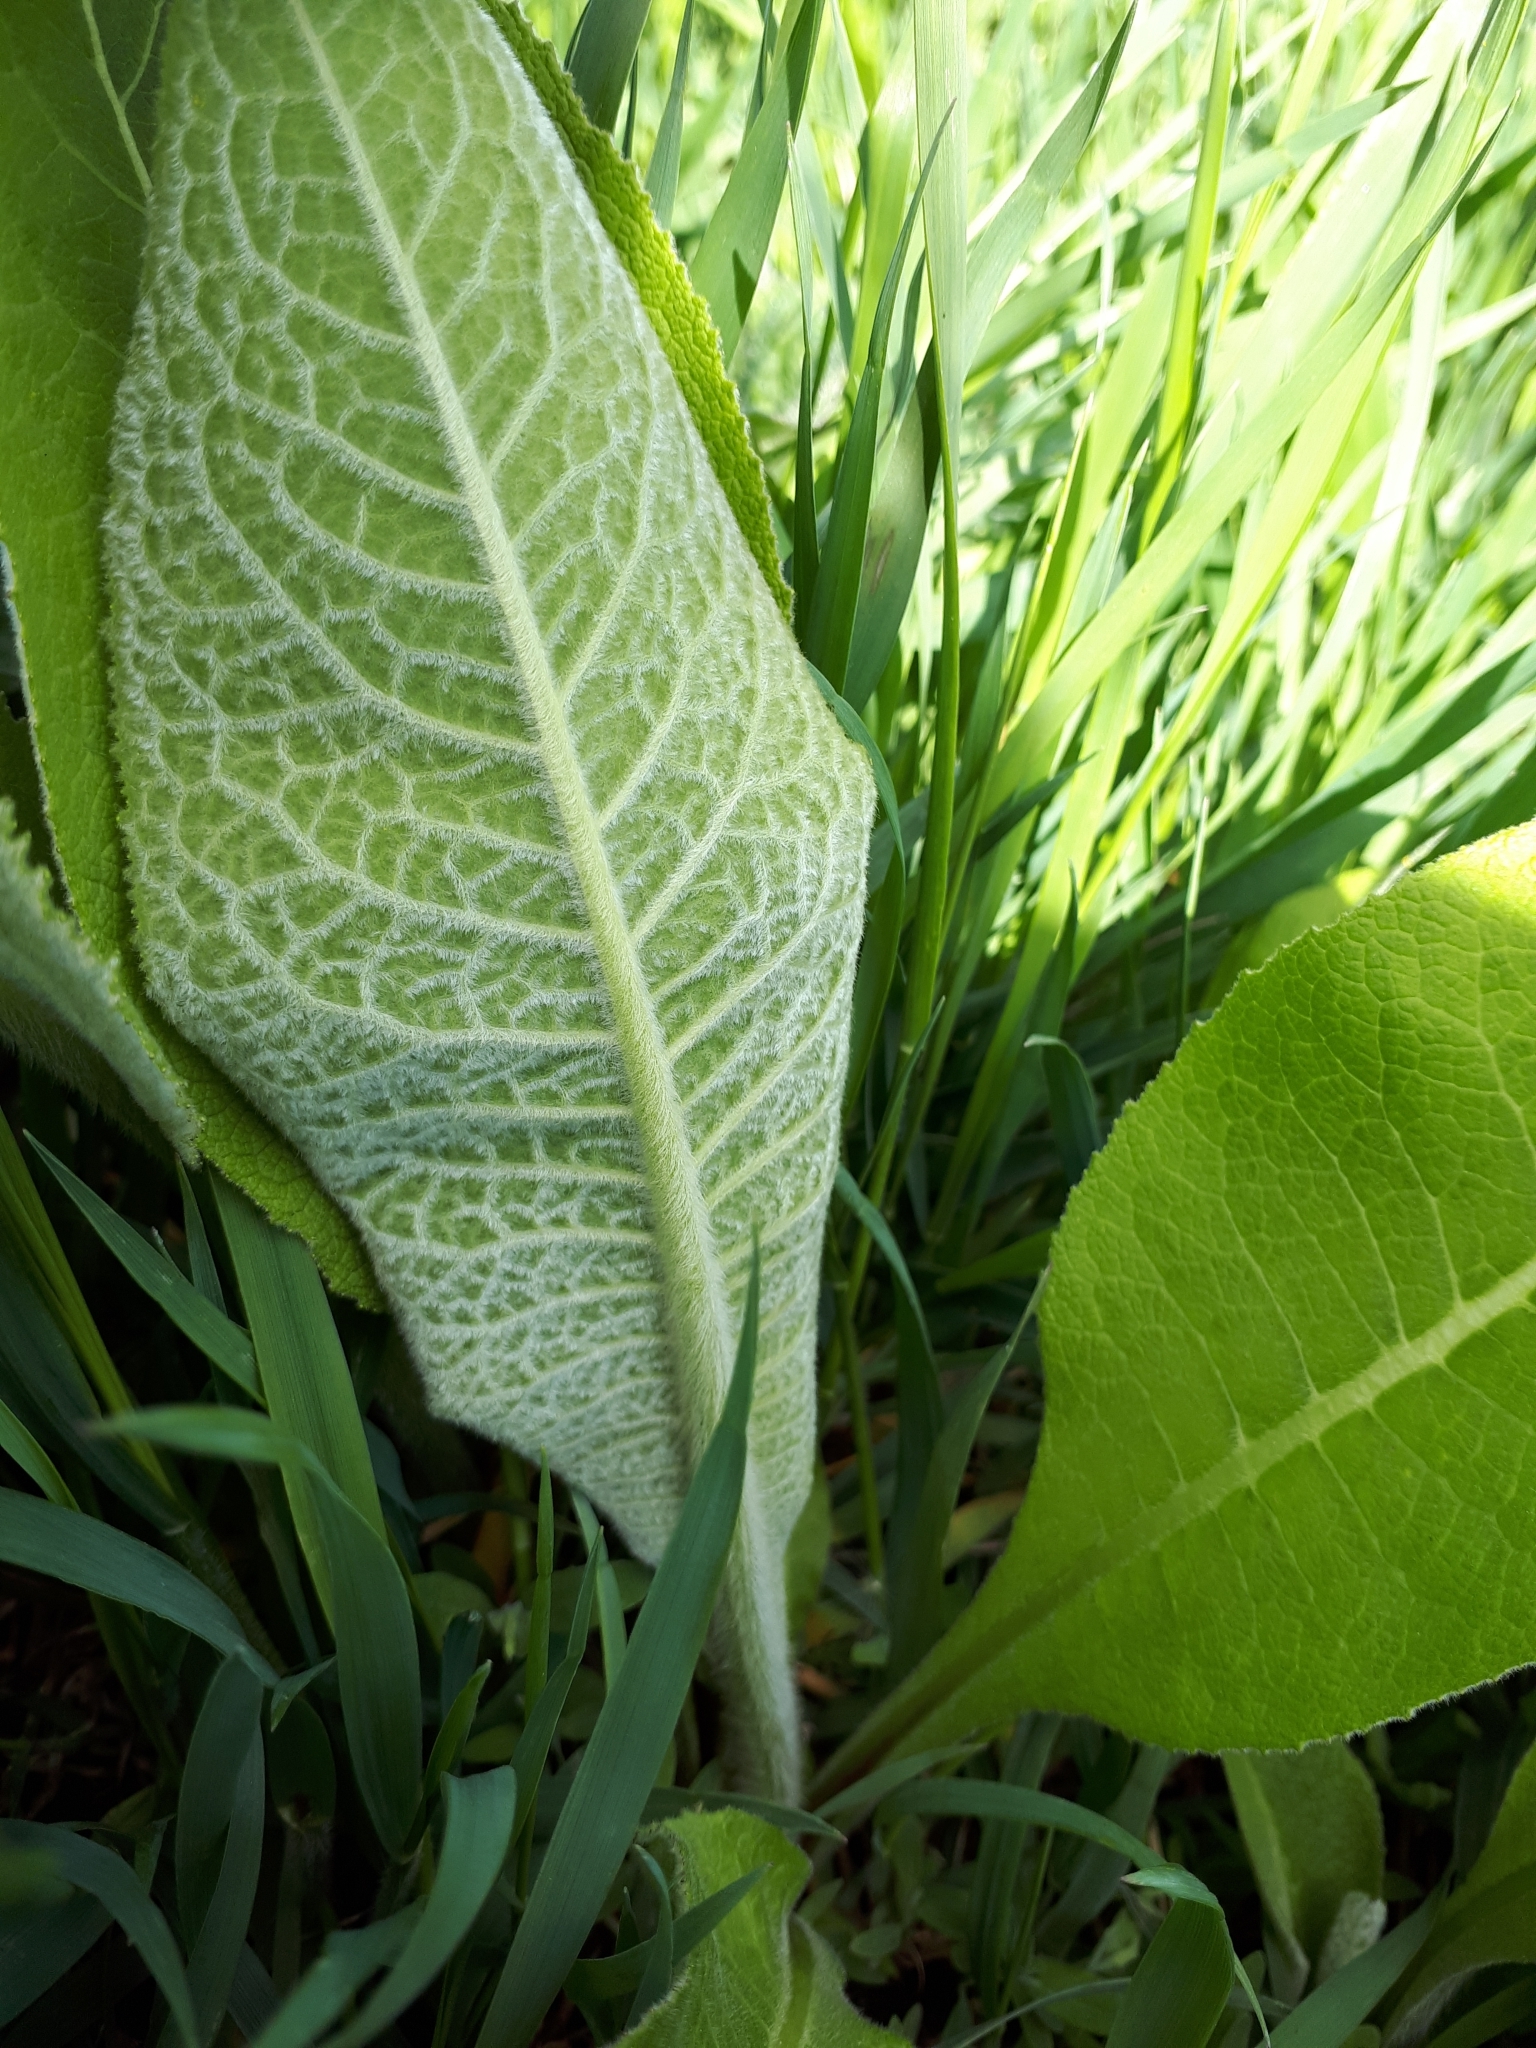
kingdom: Plantae
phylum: Tracheophyta
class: Magnoliopsida
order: Asterales
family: Asteraceae
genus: Inula
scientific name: Inula helenium
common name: Elecampane
